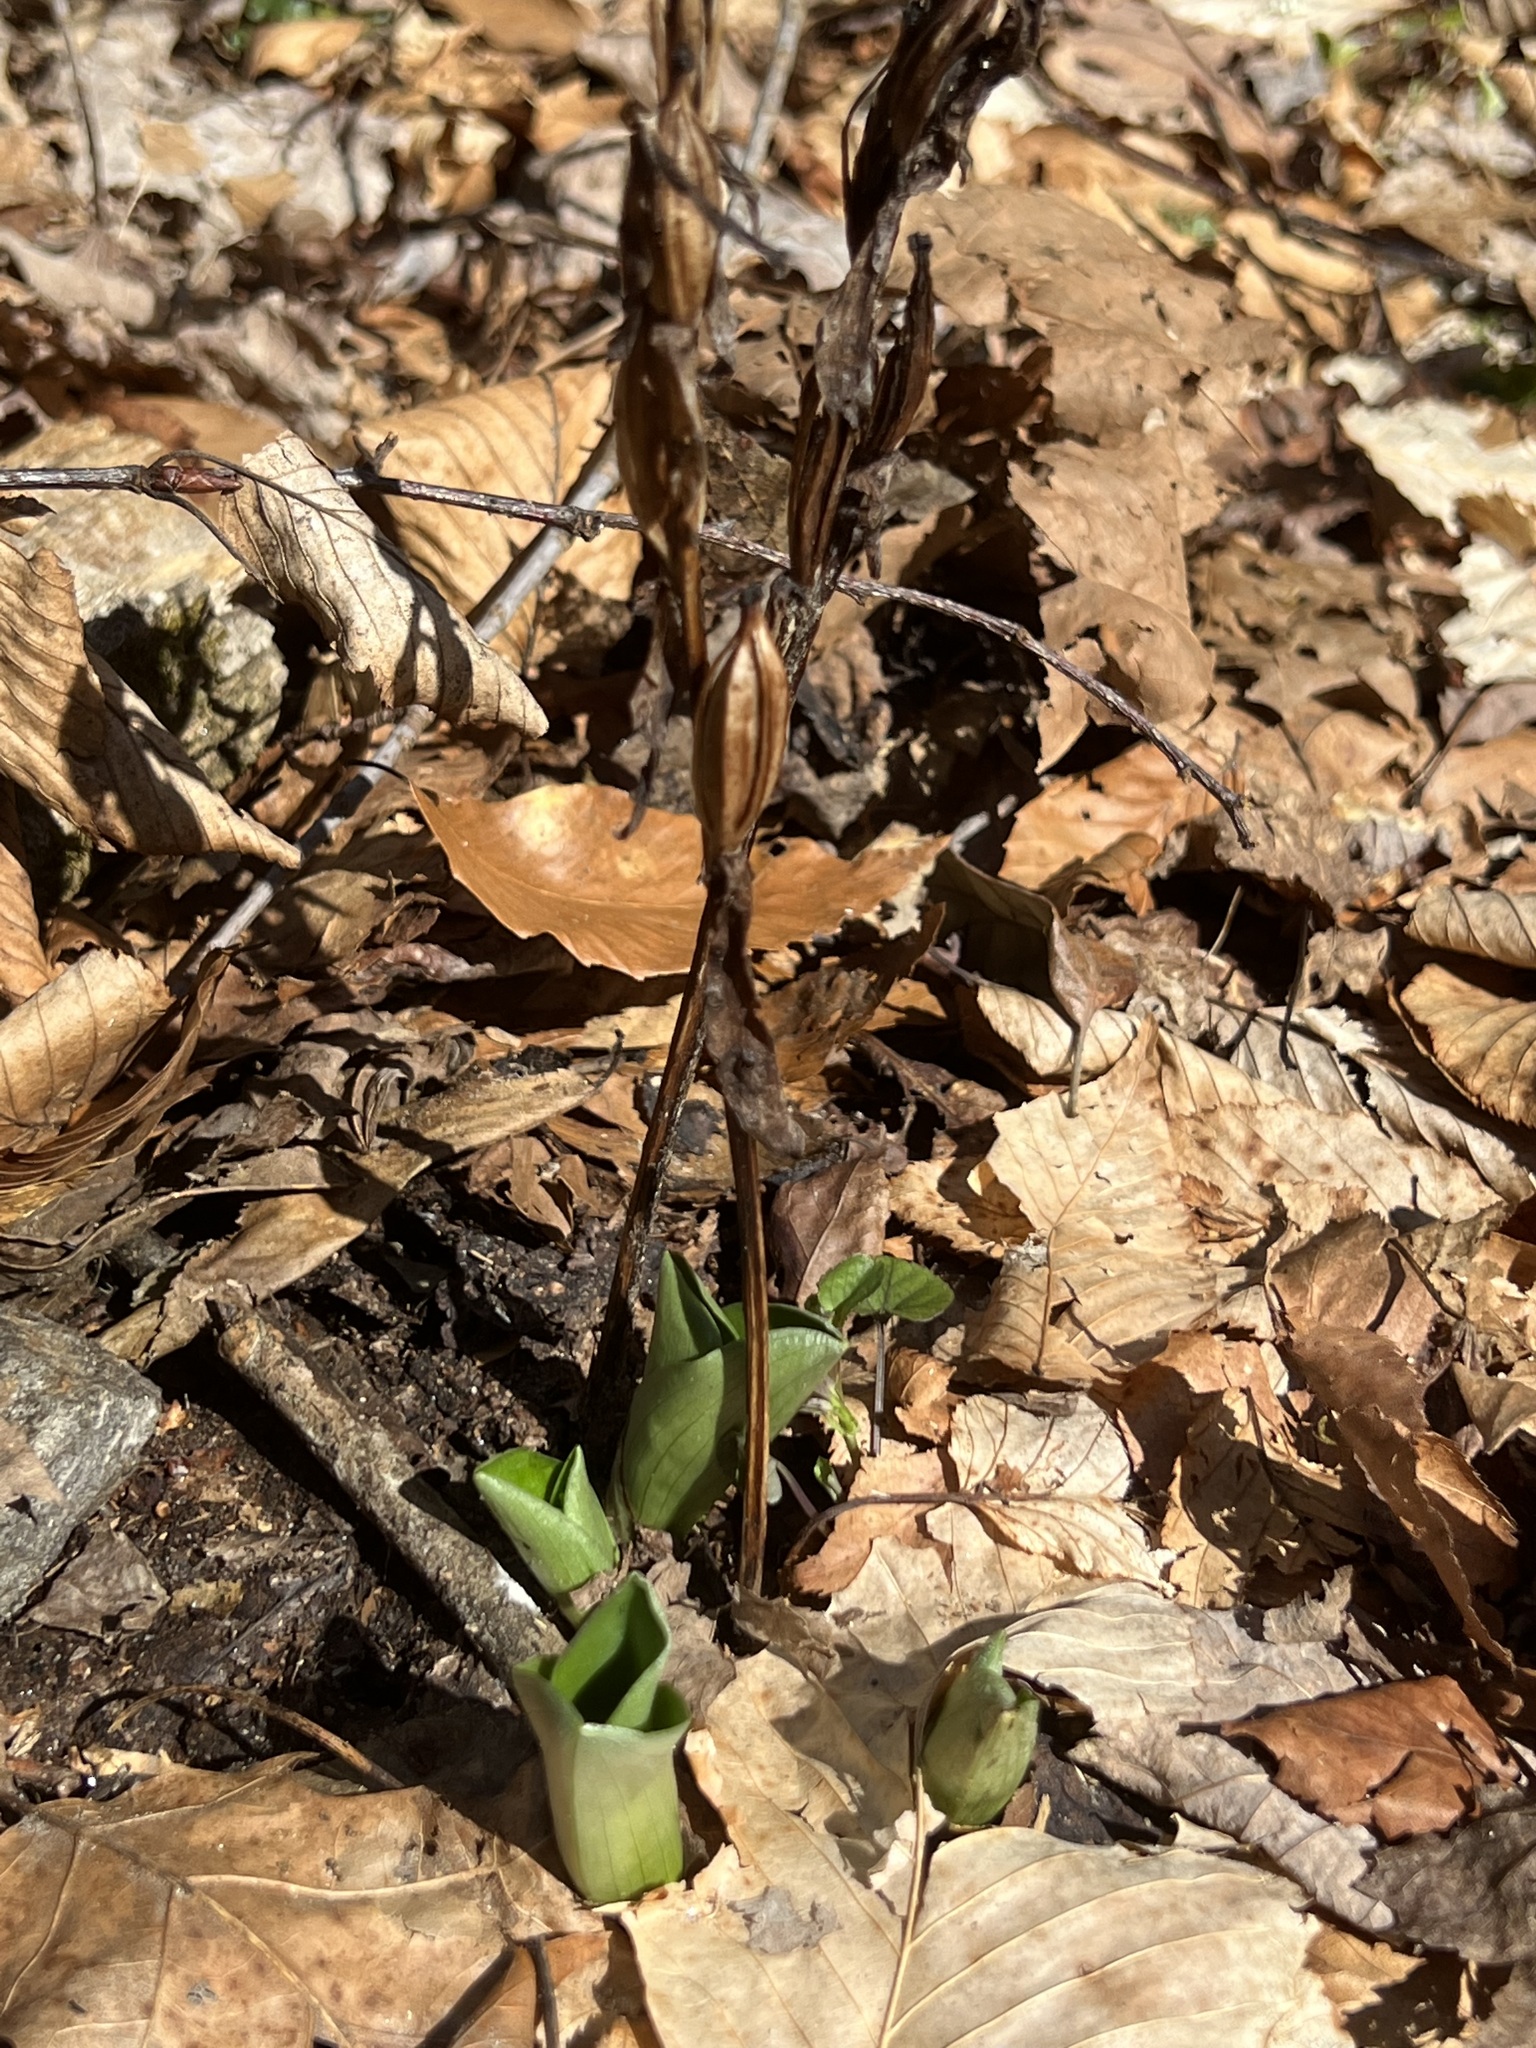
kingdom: Plantae
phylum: Tracheophyta
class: Liliopsida
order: Asparagales
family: Orchidaceae
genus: Galearis
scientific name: Galearis spectabilis
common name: Purple-hooded orchis
